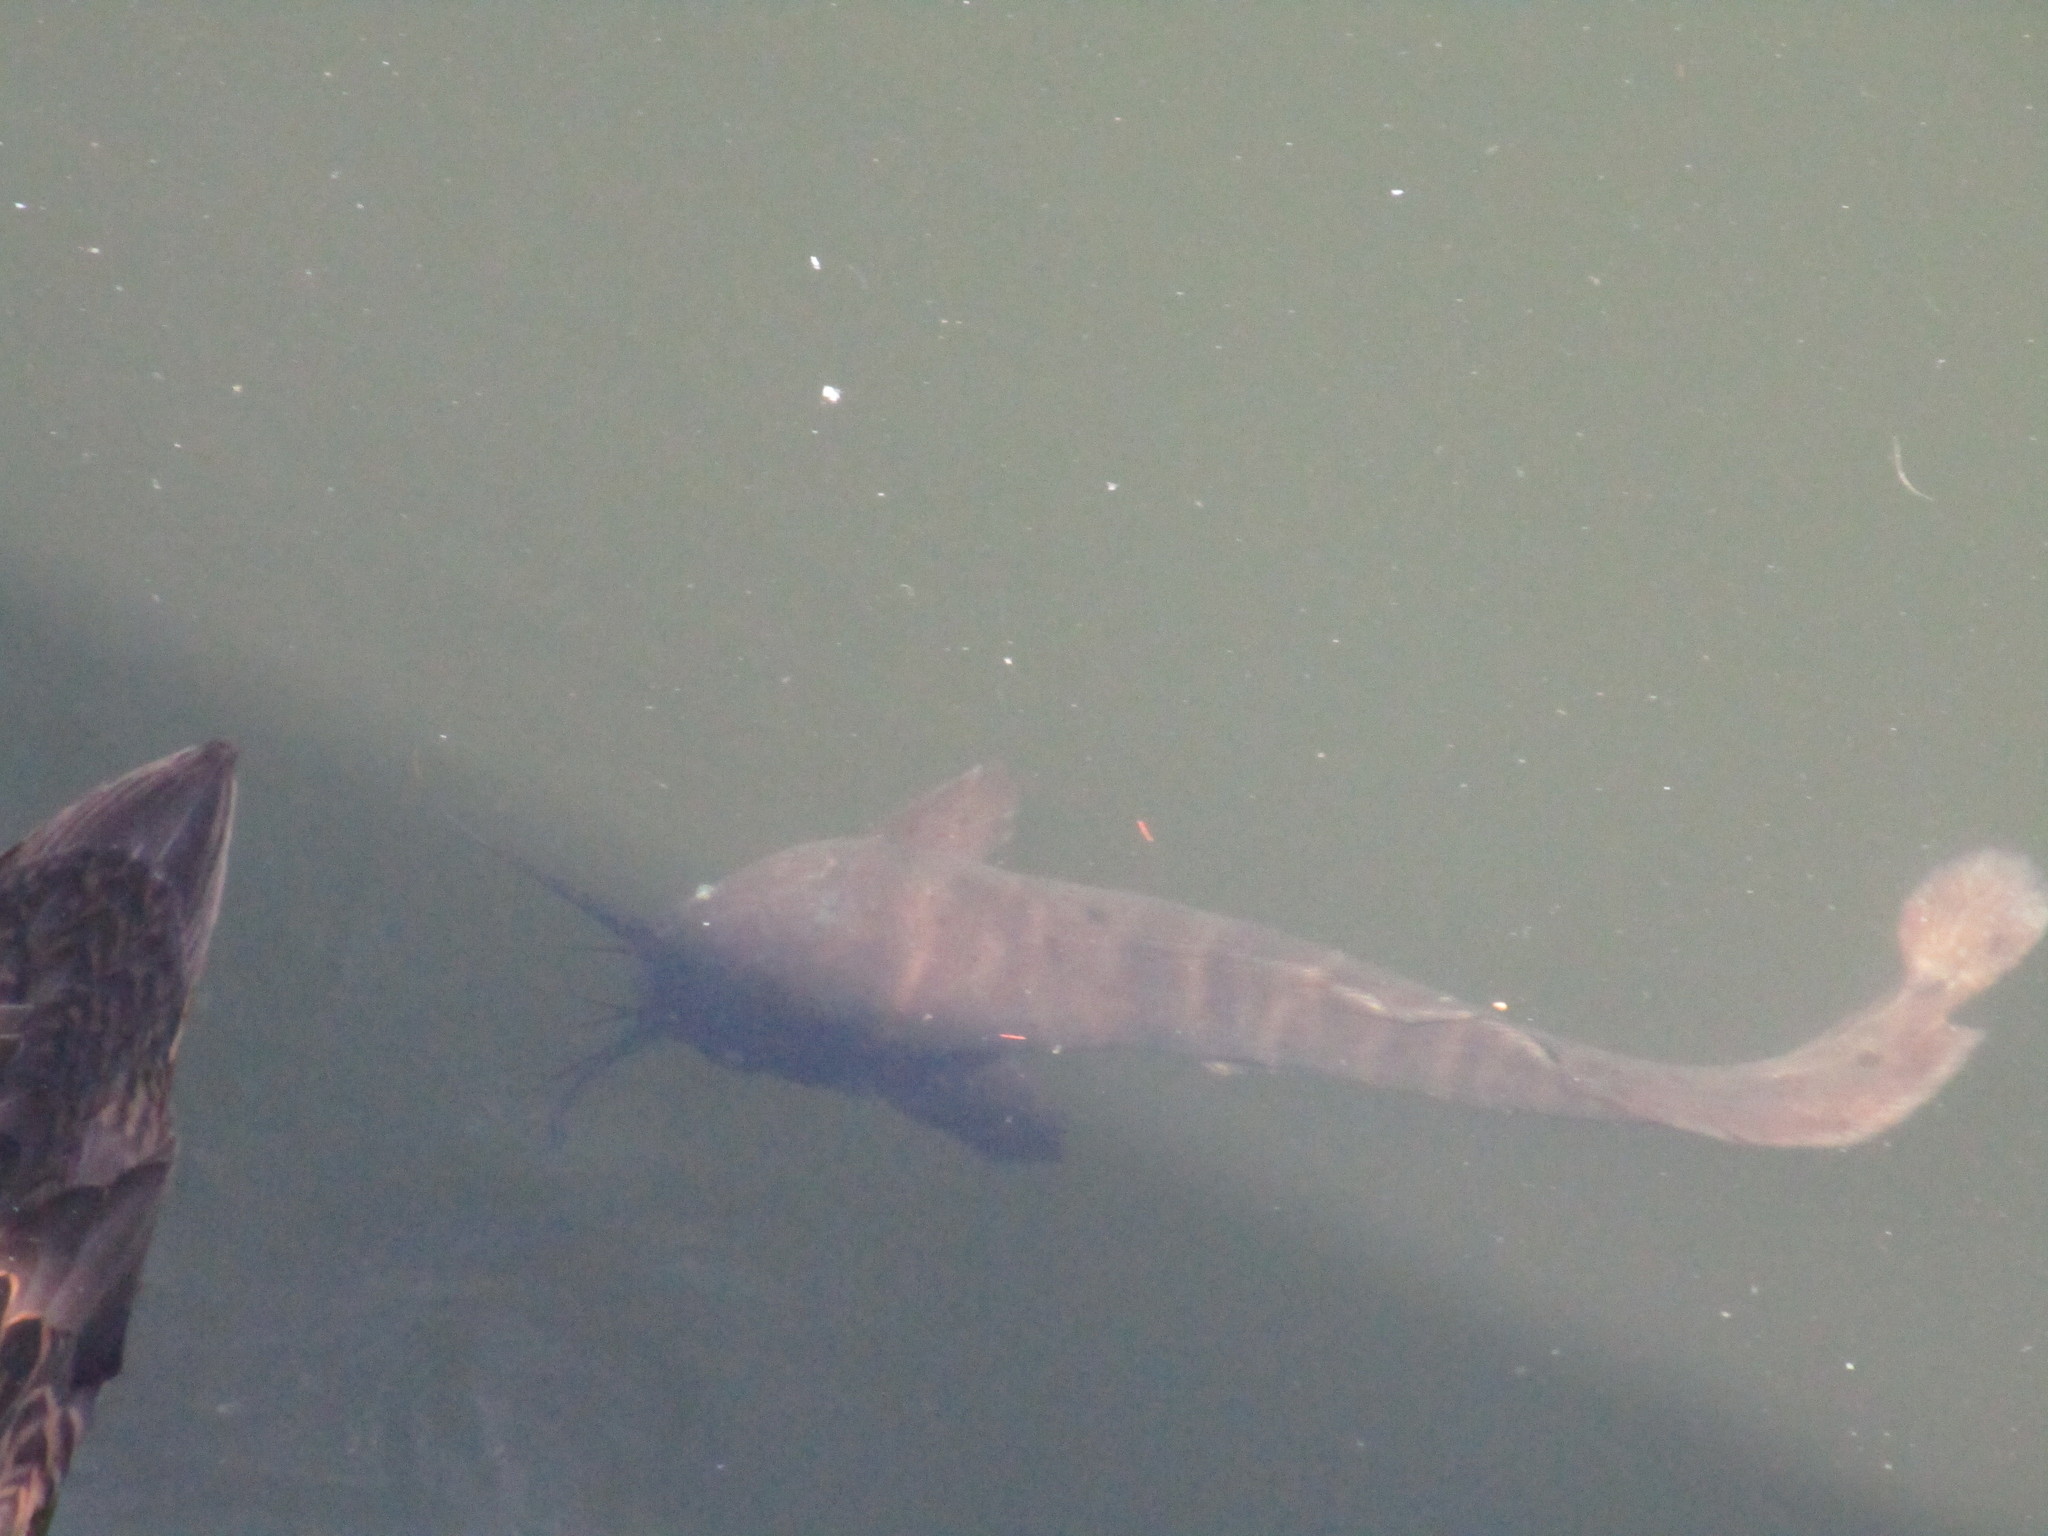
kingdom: Animalia
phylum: Chordata
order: Siluriformes
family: Clariidae
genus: Clarias
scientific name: Clarias batrachus
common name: Walking catfish
